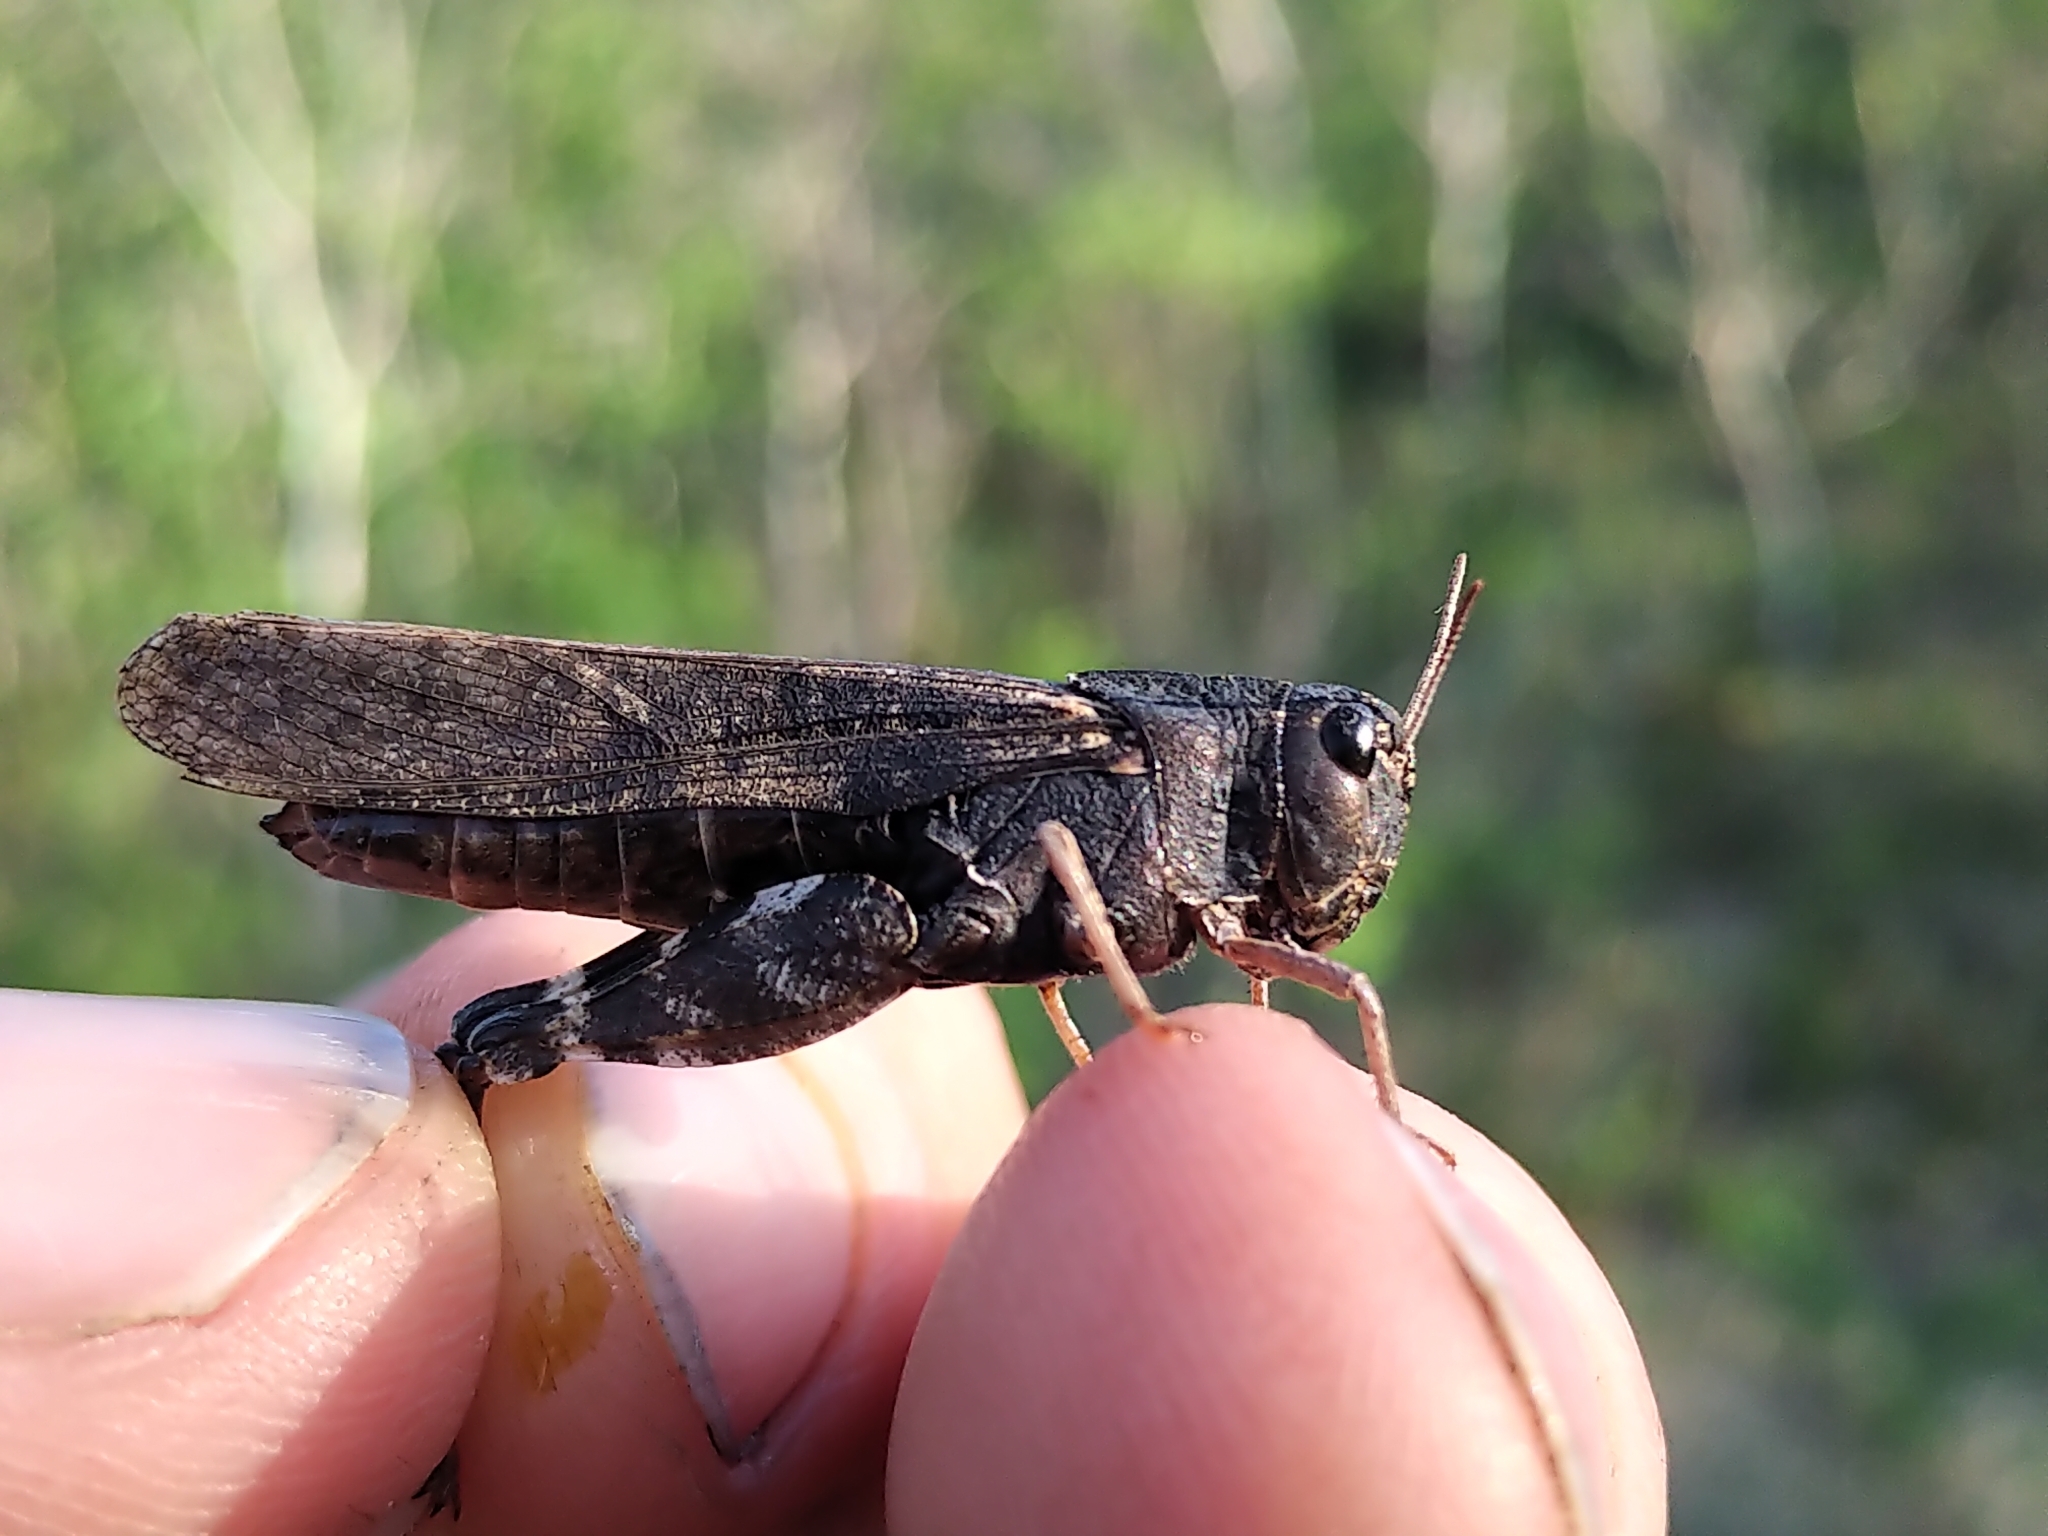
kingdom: Animalia
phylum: Arthropoda
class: Insecta
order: Orthoptera
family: Acrididae
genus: Arphia
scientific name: Arphia conspersa
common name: Speckle-winged rangeland grasshopper
